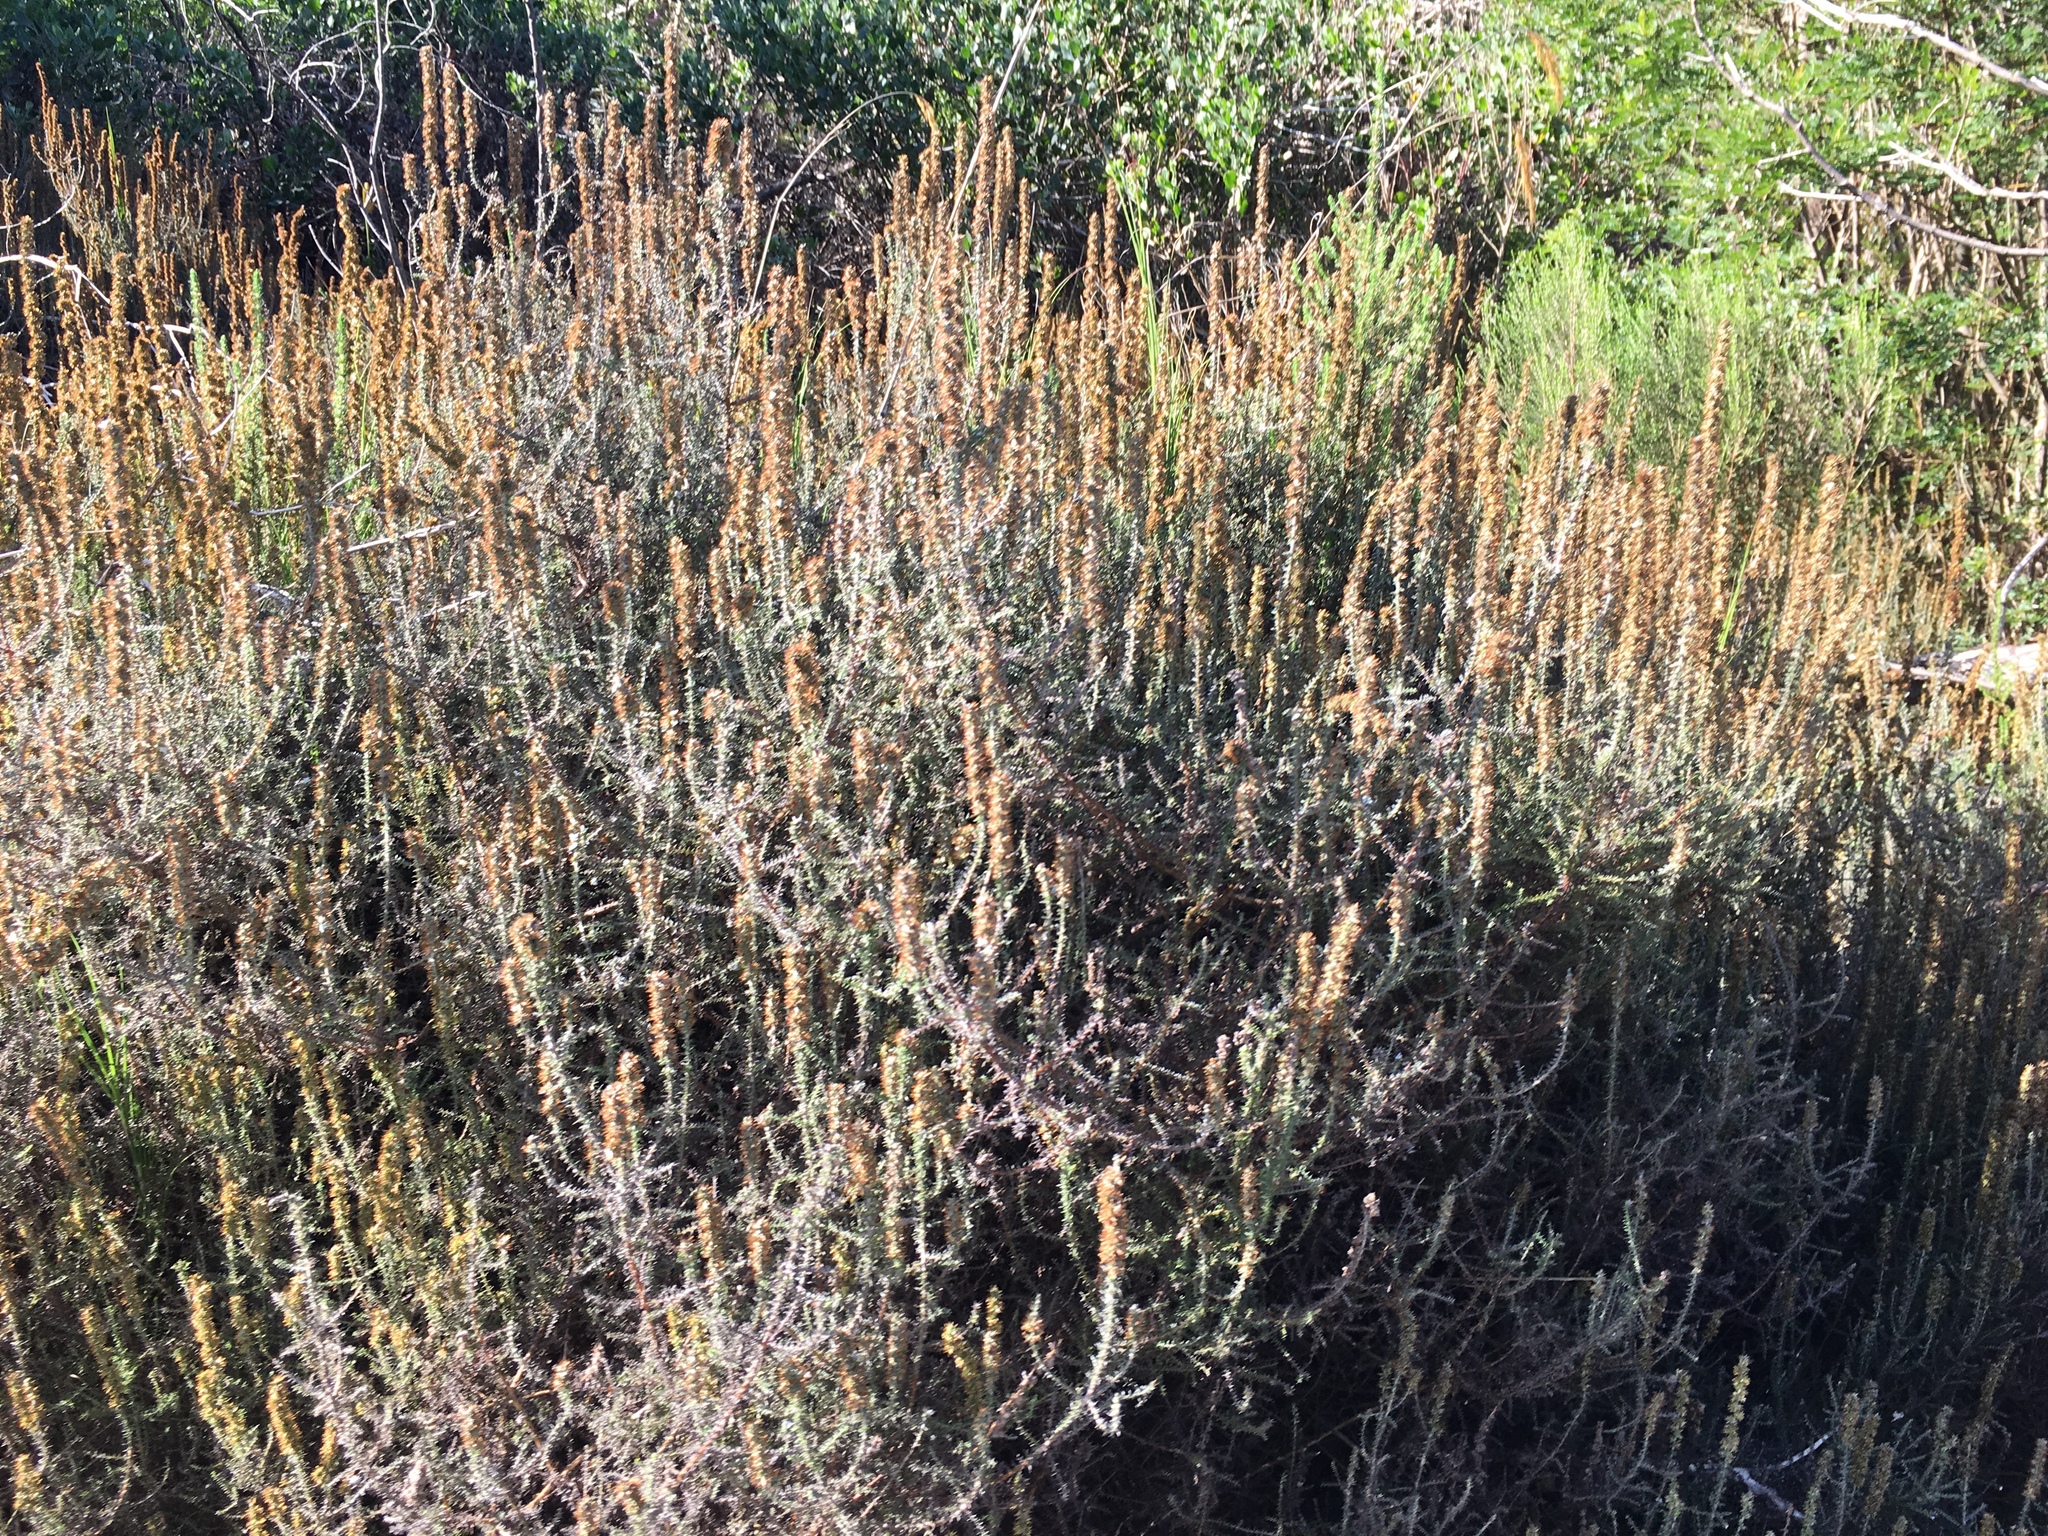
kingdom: Plantae
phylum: Tracheophyta
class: Magnoliopsida
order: Asterales
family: Asteraceae
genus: Seriphium
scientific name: Seriphium plumosum
